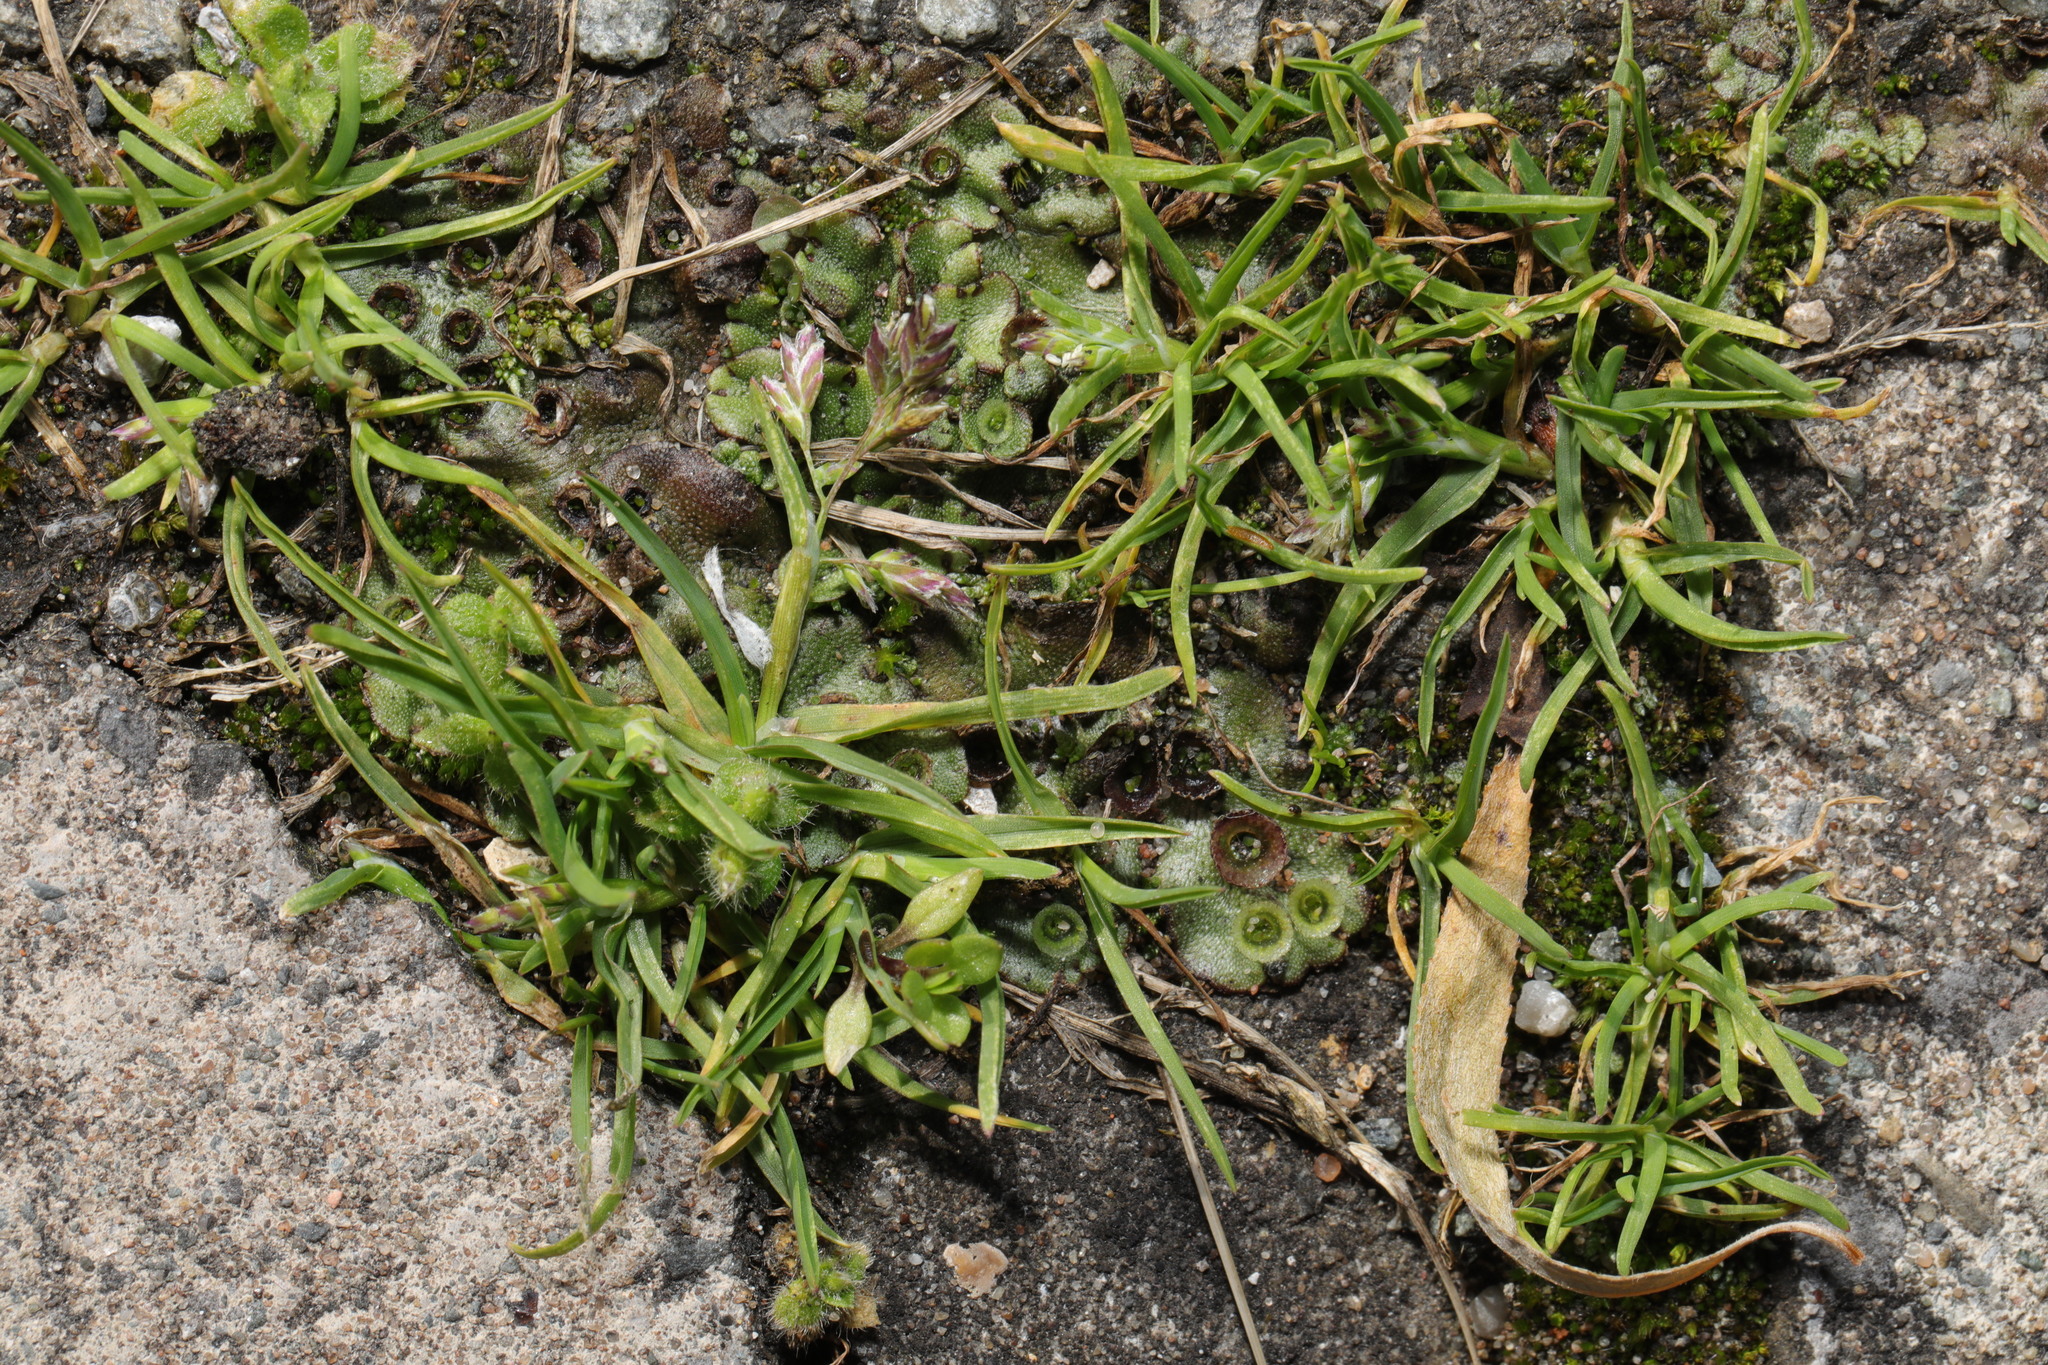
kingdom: Plantae
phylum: Marchantiophyta
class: Marchantiopsida
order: Marchantiales
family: Marchantiaceae
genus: Marchantia
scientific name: Marchantia polymorpha
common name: Common liverwort
